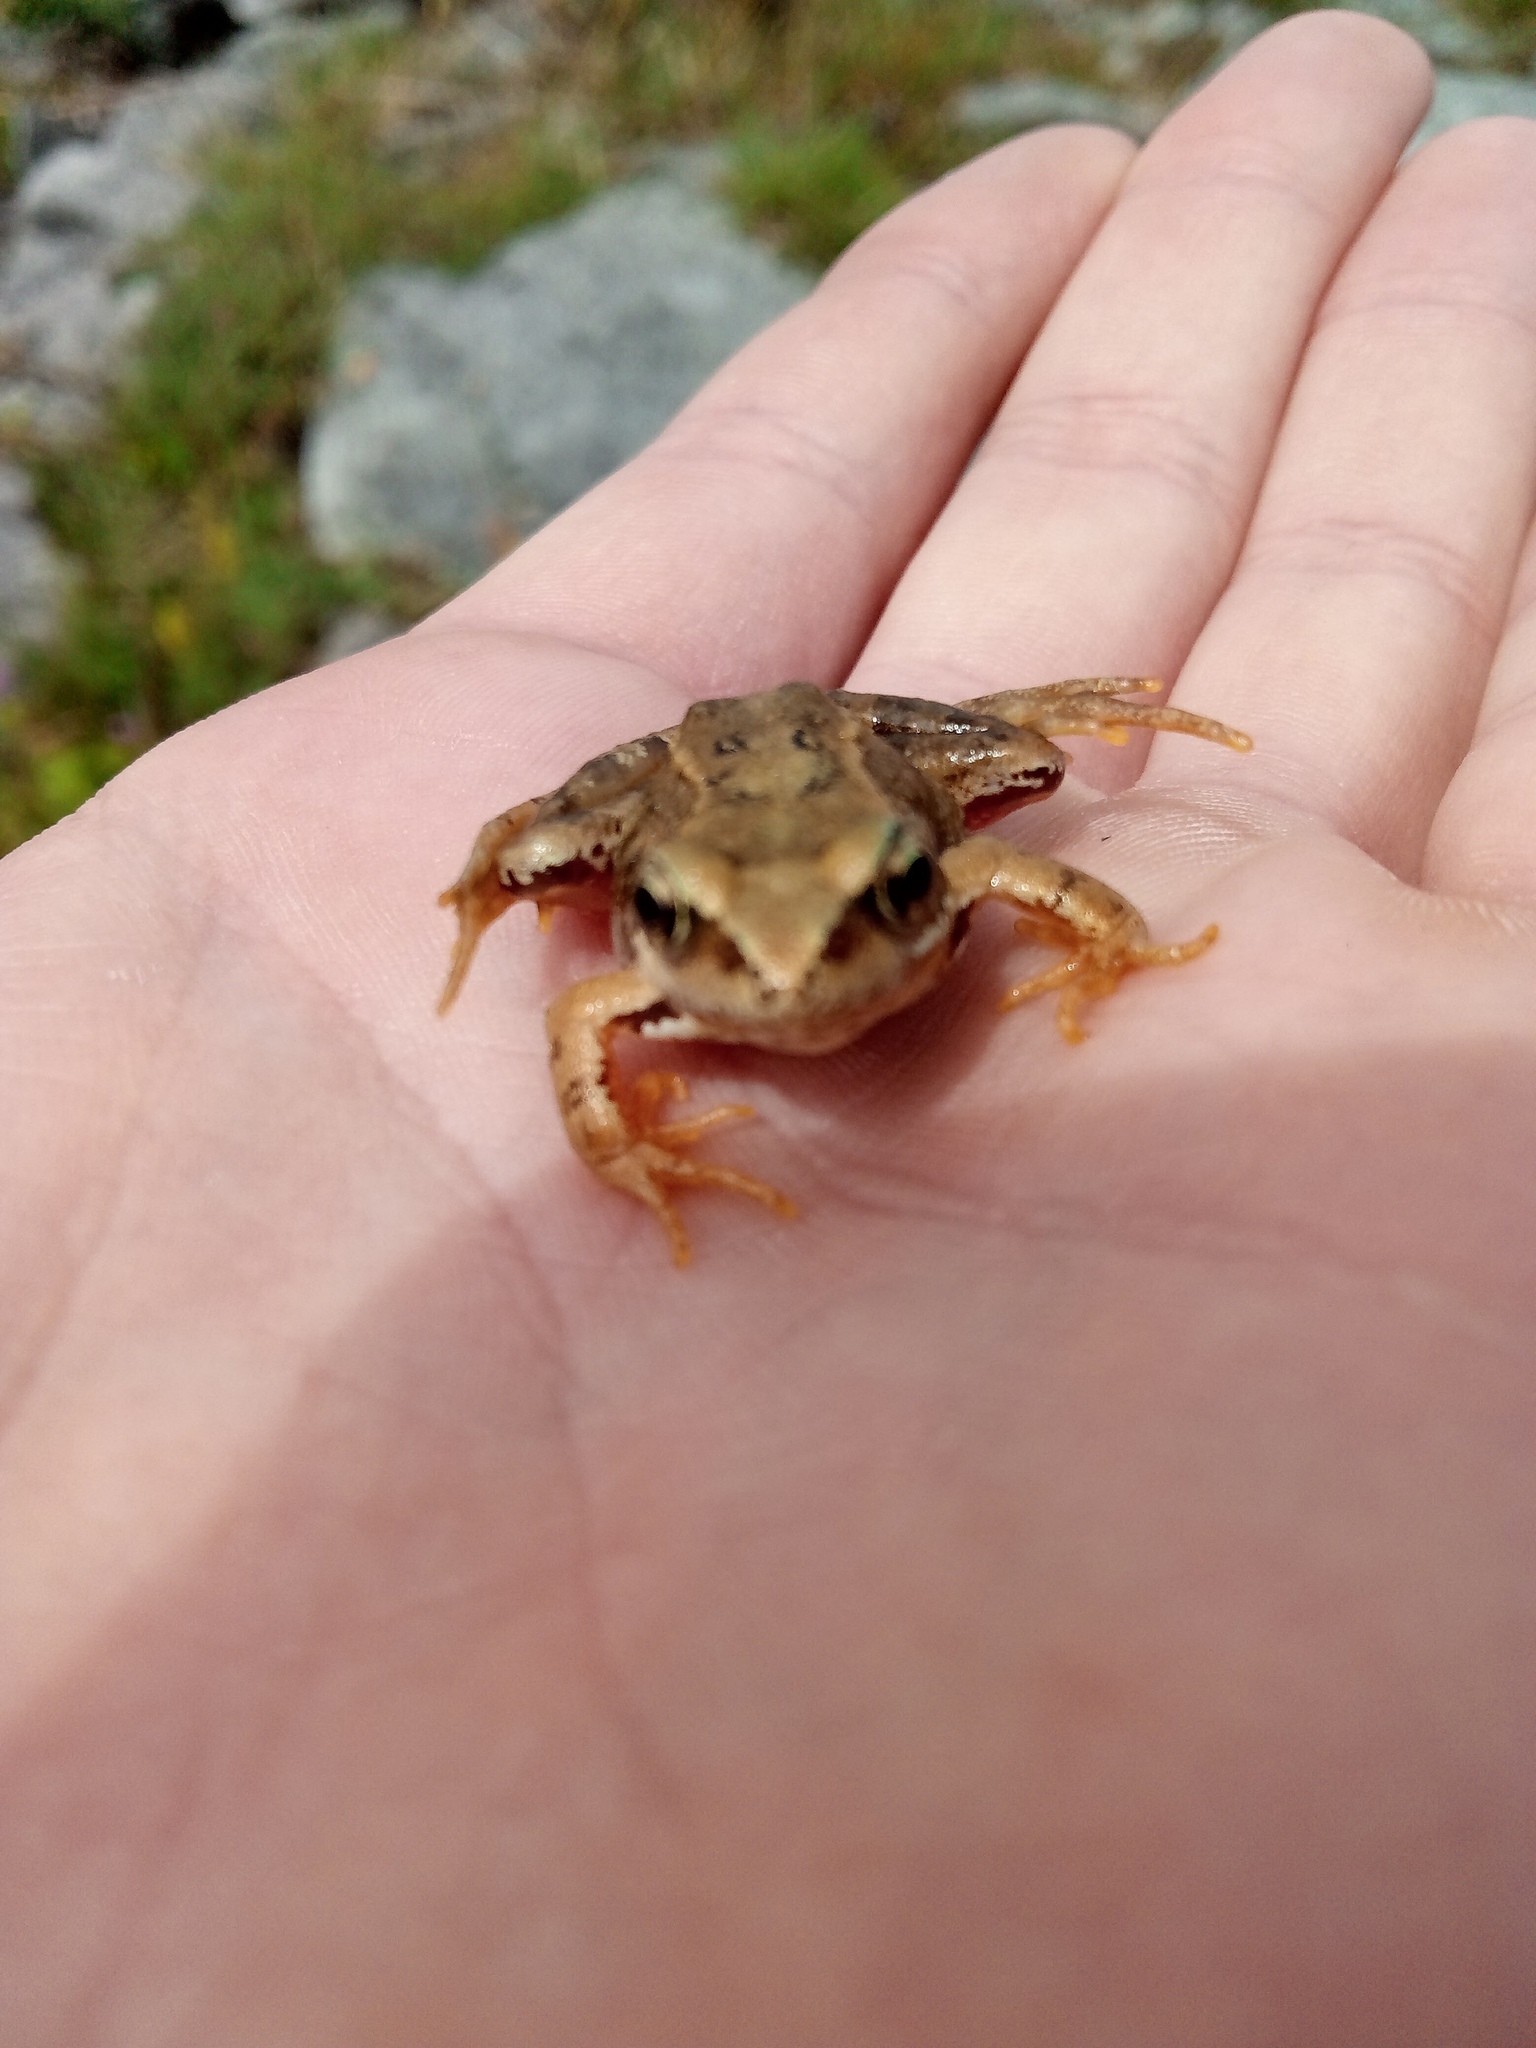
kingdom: Animalia
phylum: Chordata
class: Amphibia
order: Anura
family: Ranidae
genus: Rana
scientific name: Rana temporaria
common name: Common frog
